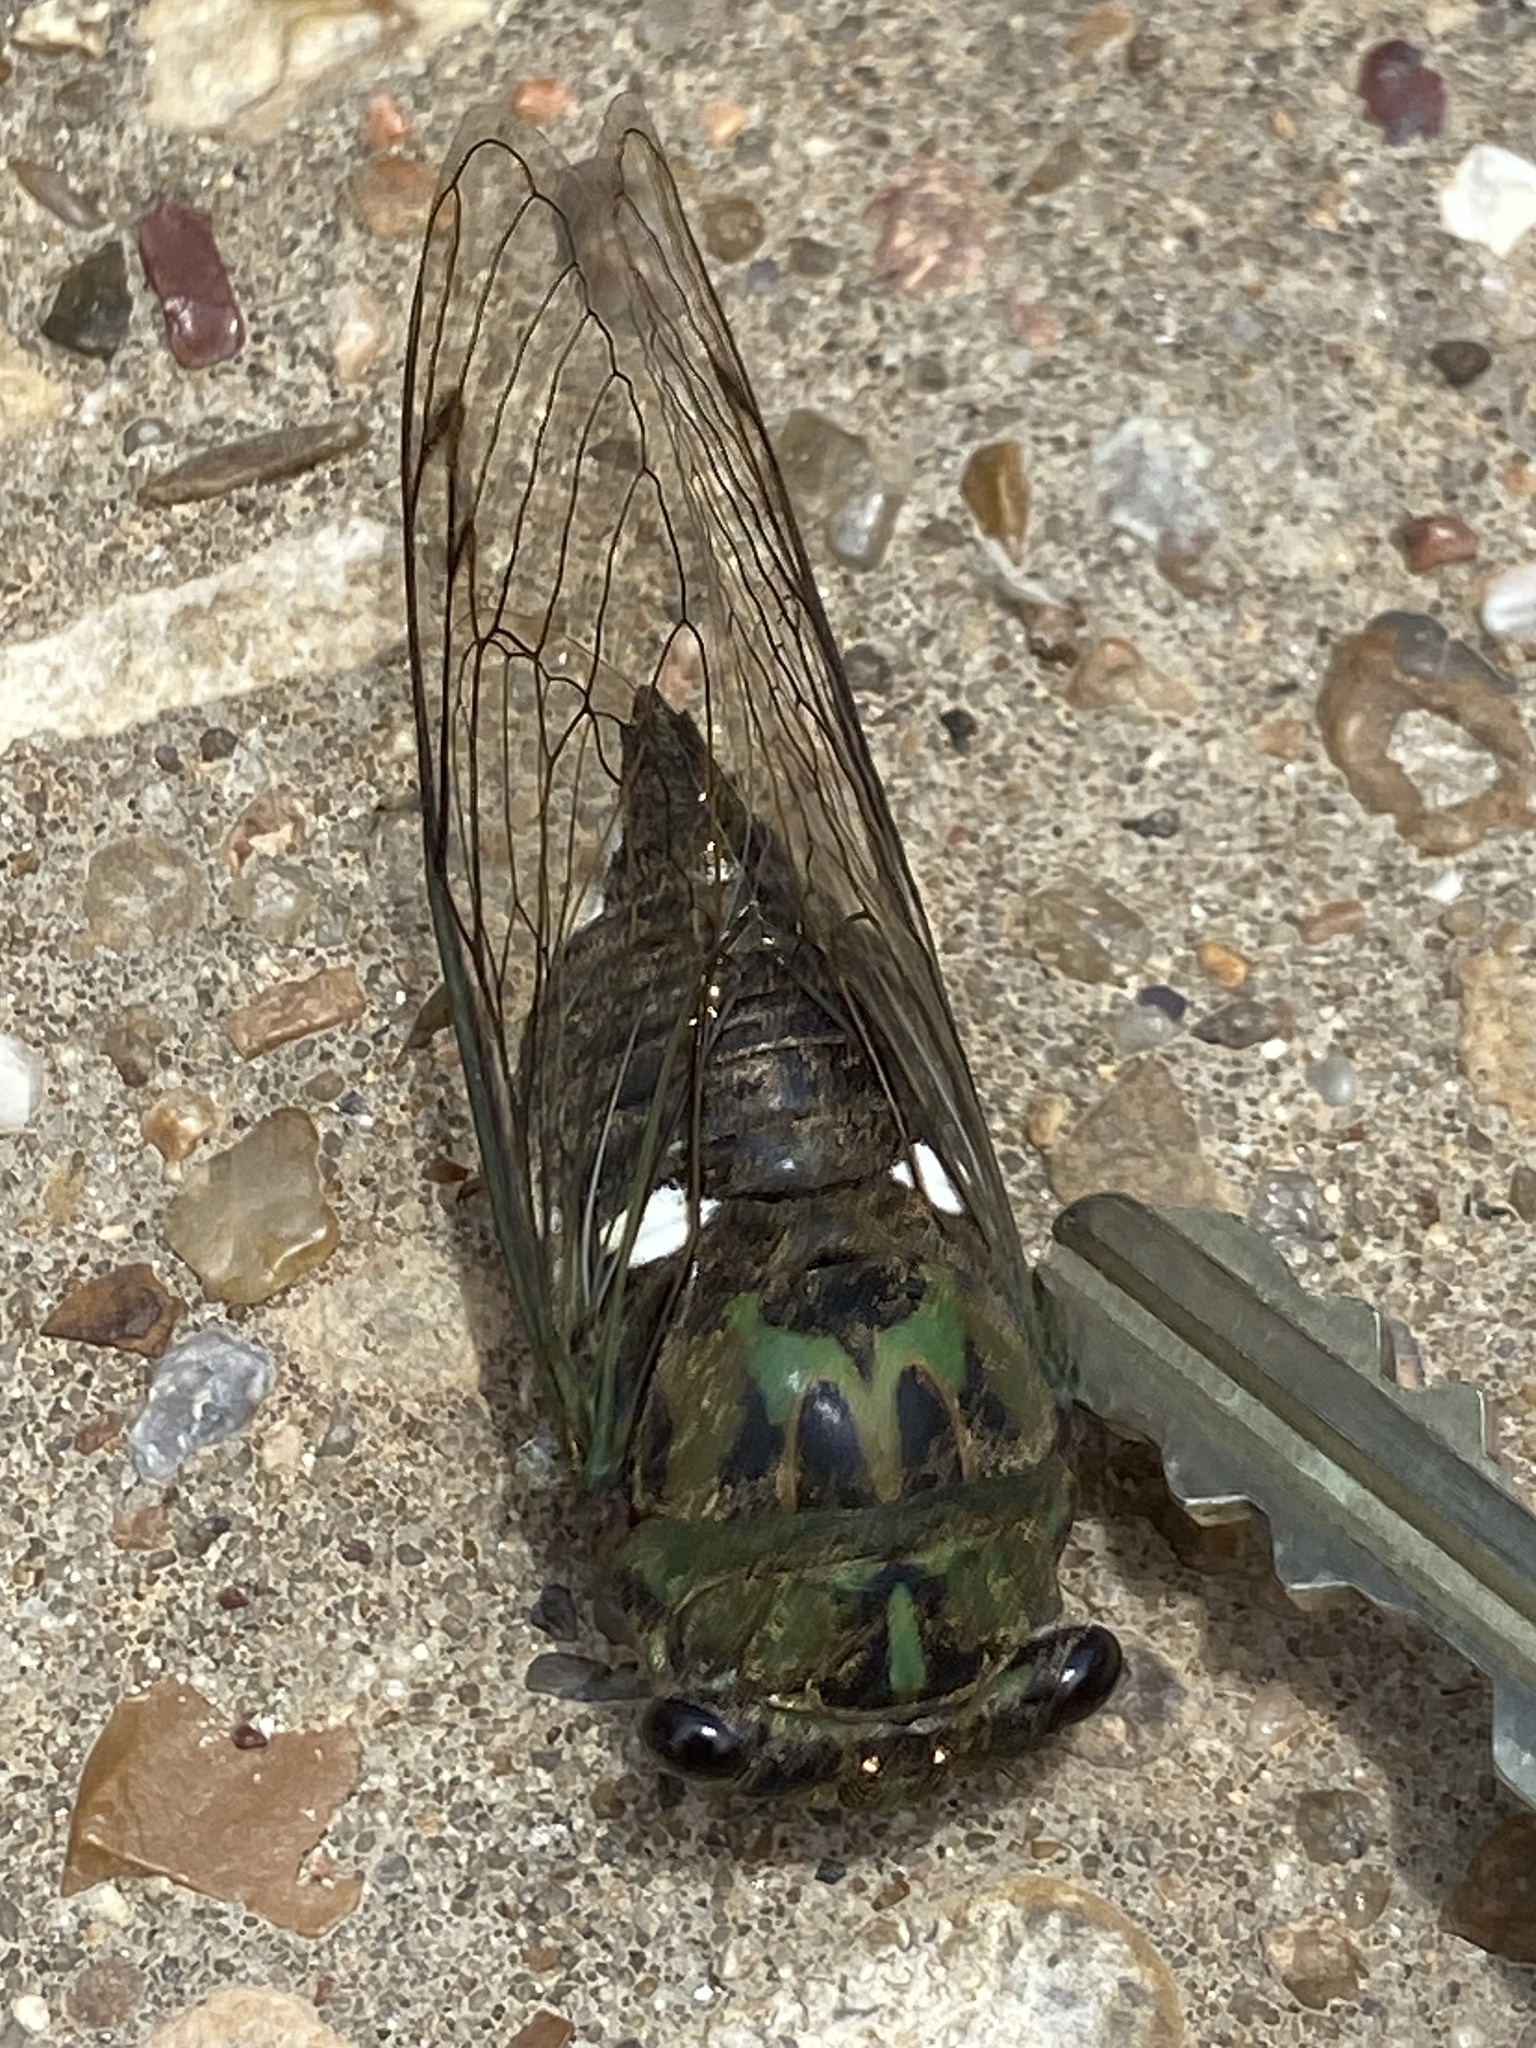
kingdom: Animalia
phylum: Arthropoda
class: Insecta
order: Hemiptera
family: Cicadidae
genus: Neotibicen
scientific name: Neotibicen pruinosus
